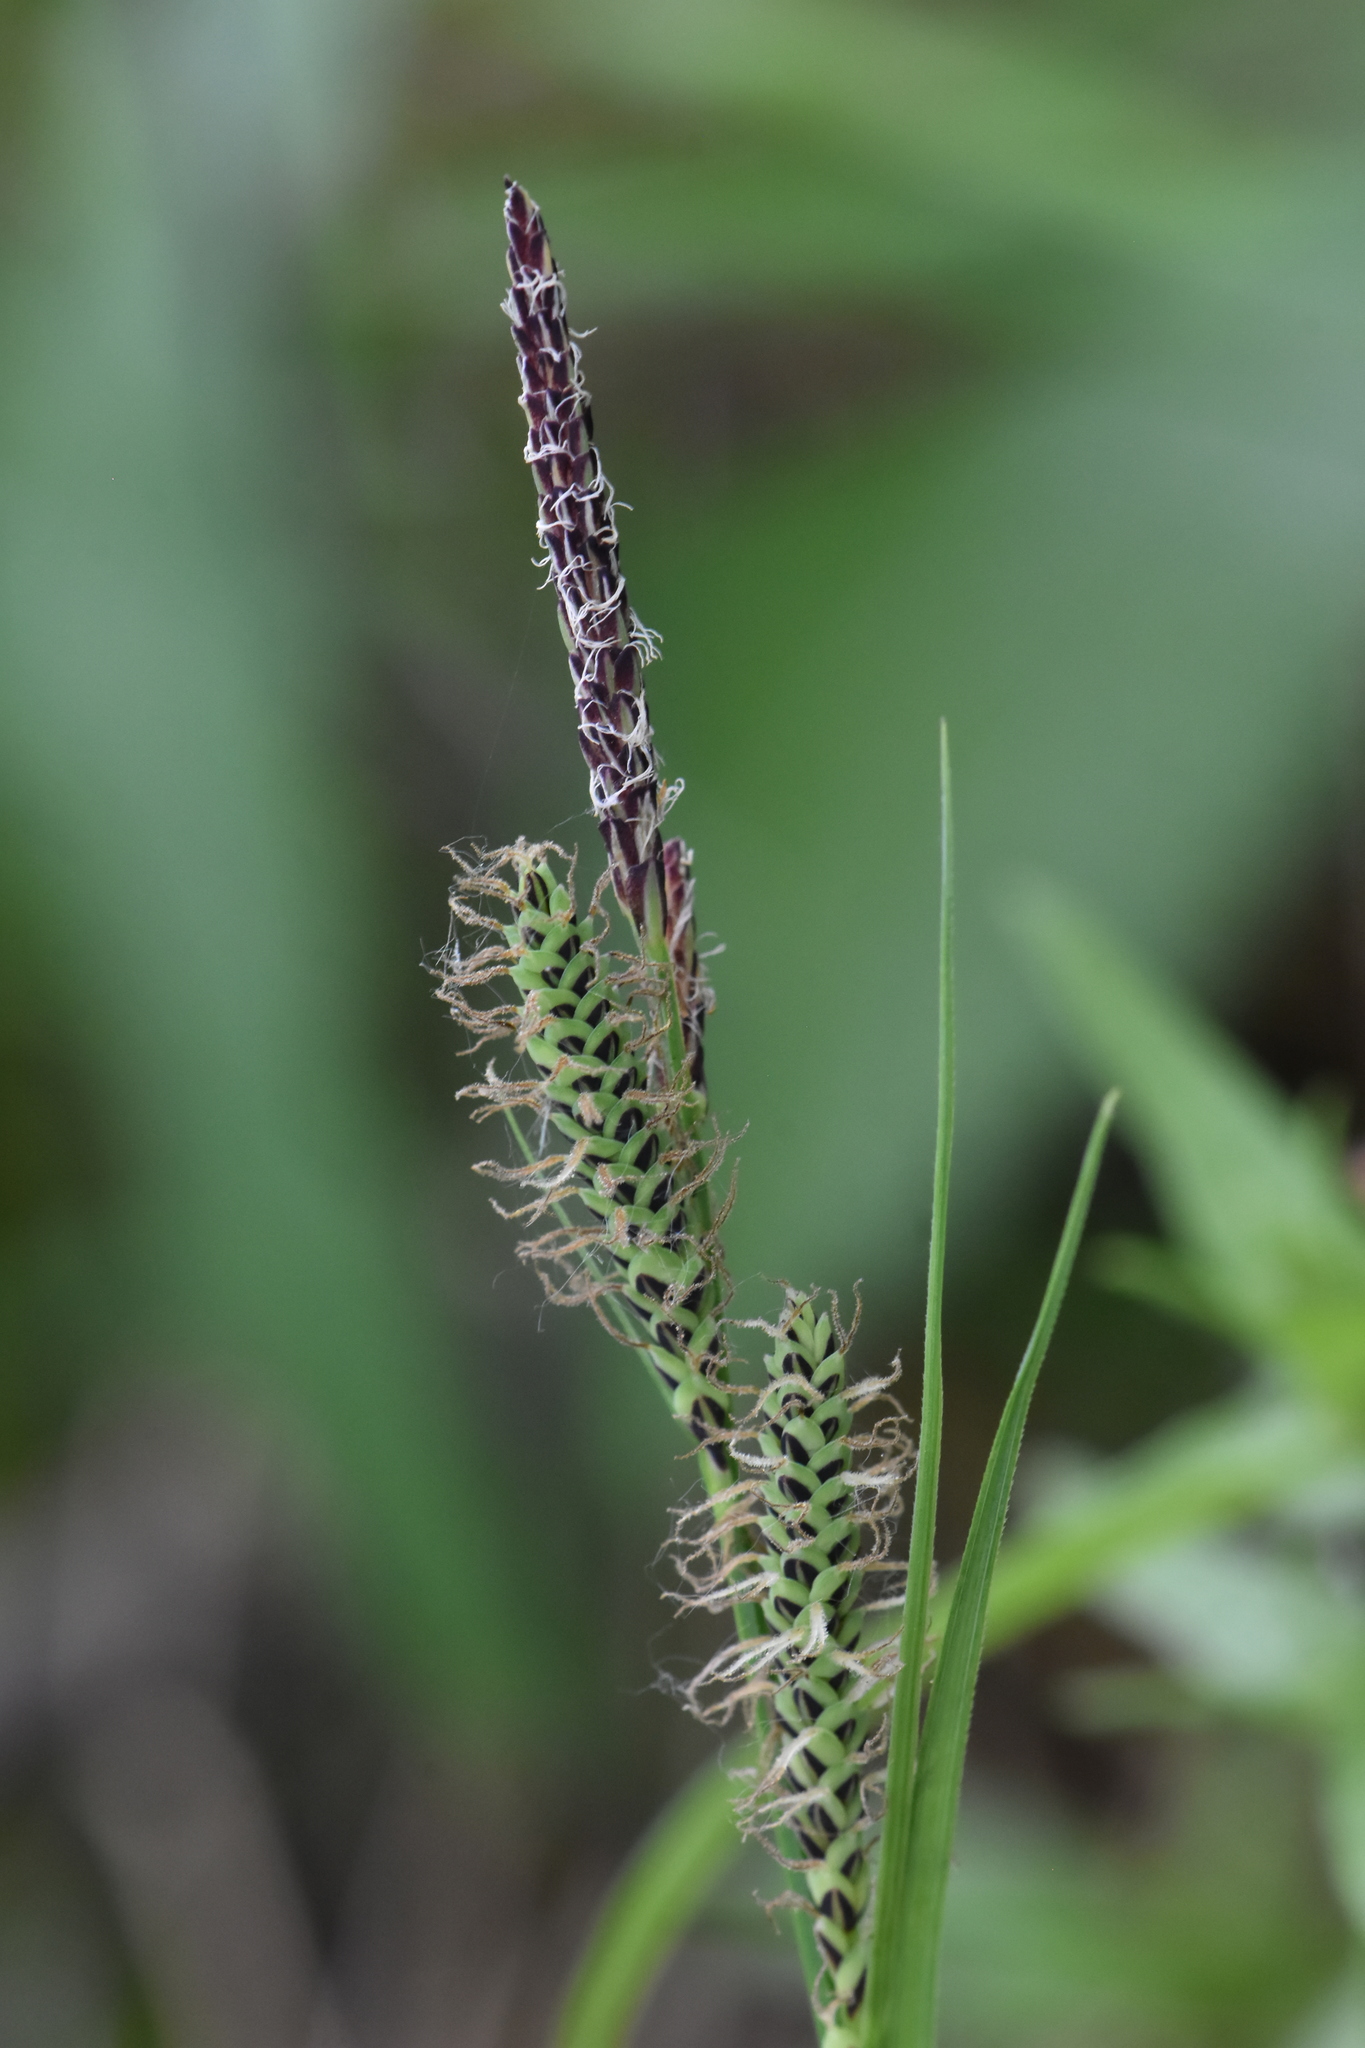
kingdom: Plantae
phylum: Tracheophyta
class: Liliopsida
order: Poales
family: Cyperaceae
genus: Carex
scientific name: Carex nigra
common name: Common sedge
